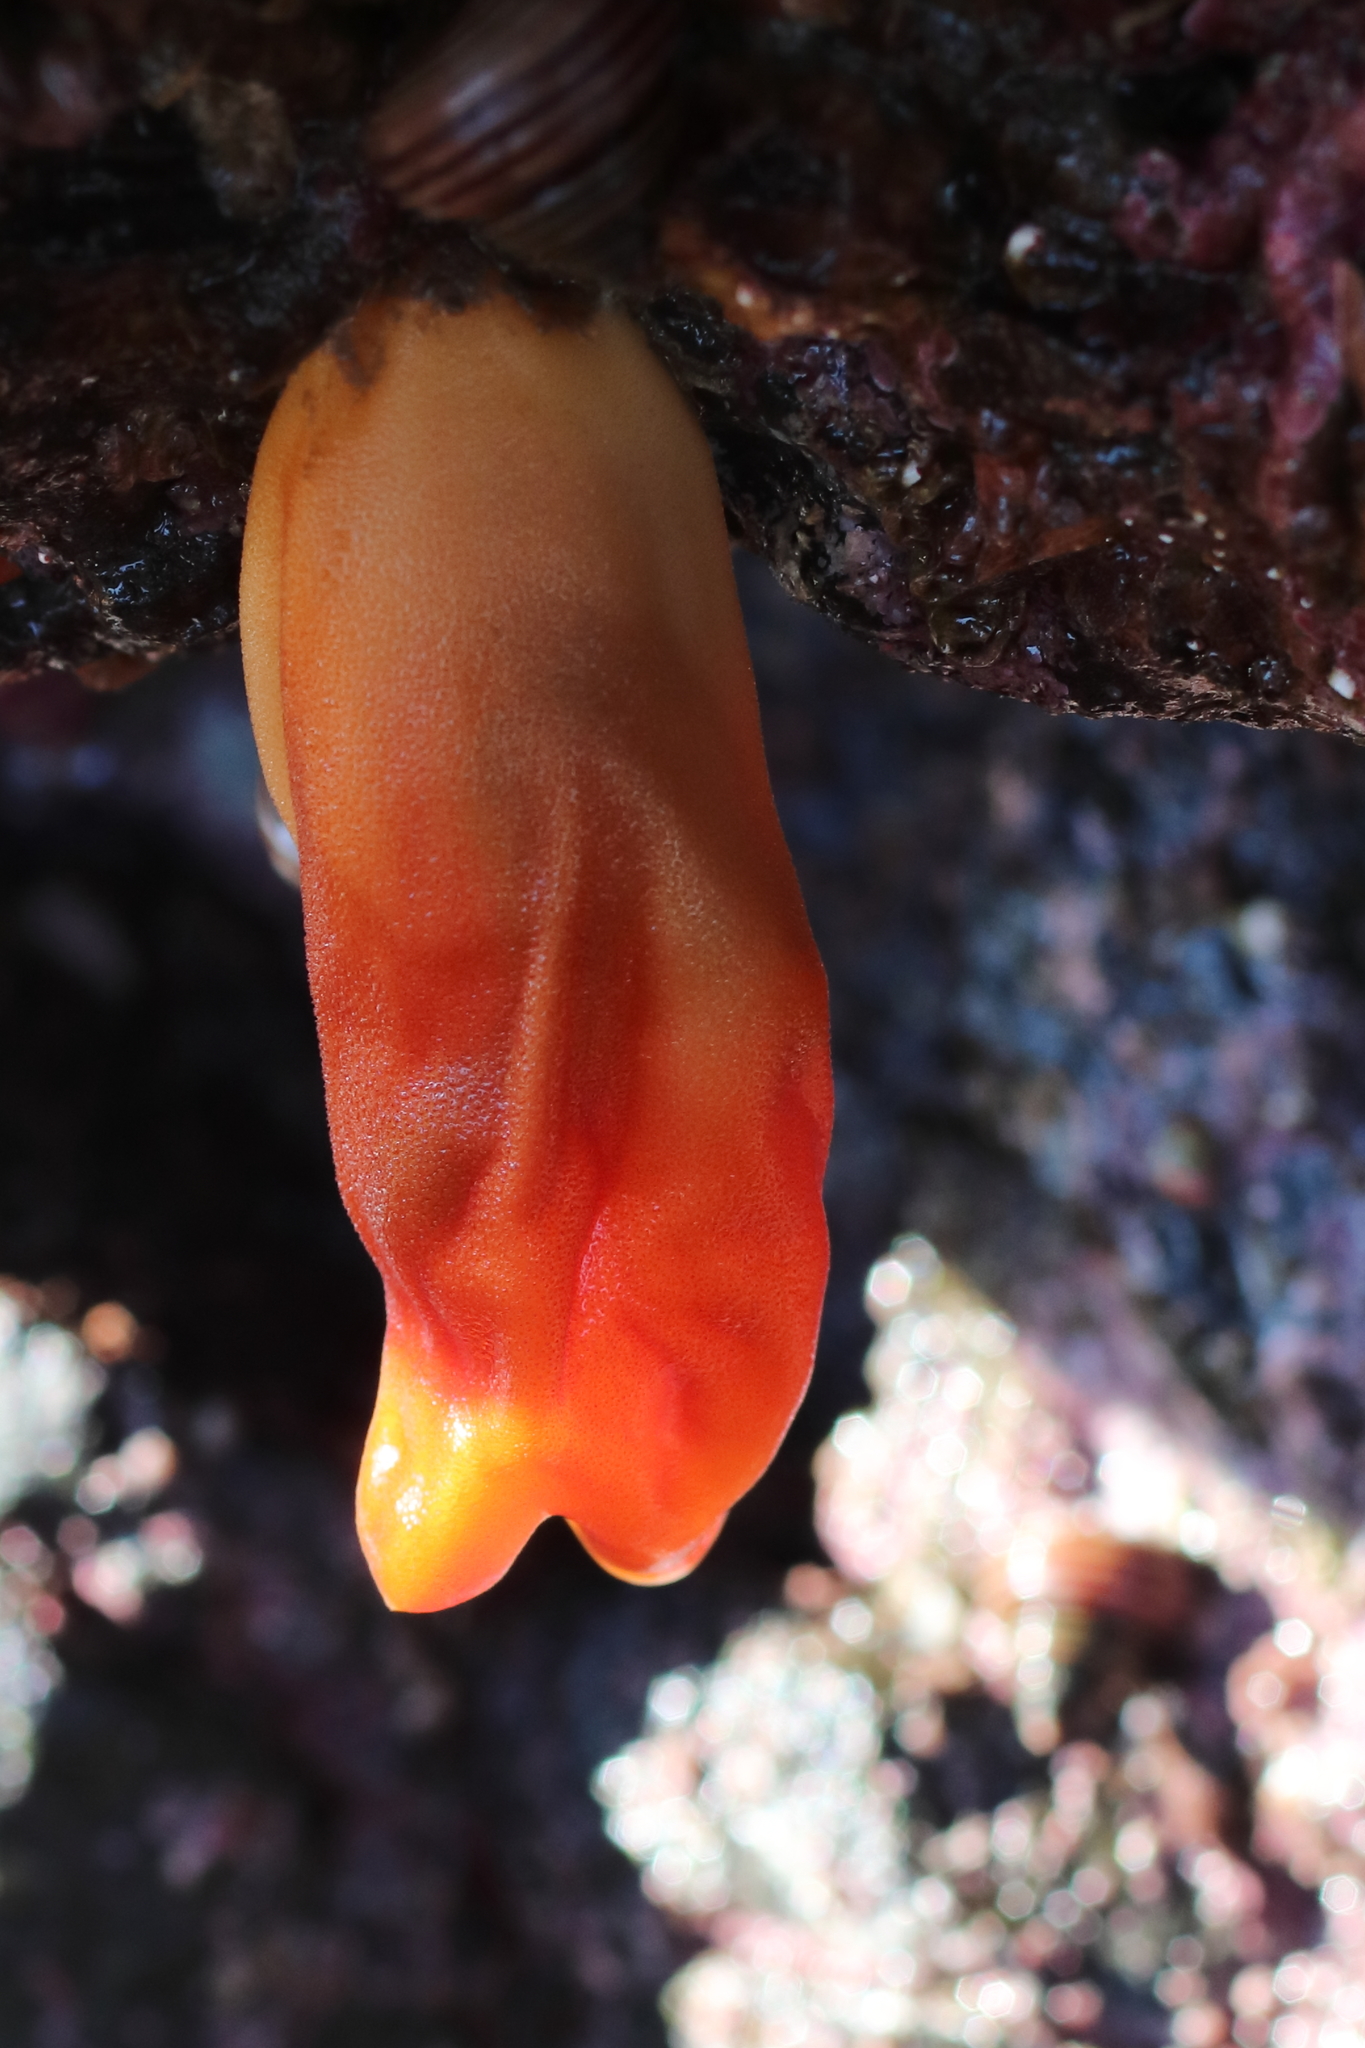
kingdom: Animalia
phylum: Chordata
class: Ascidiacea
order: Stolidobranchia
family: Pyuridae
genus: Halocynthia
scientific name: Halocynthia aurantium
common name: Sea peach
